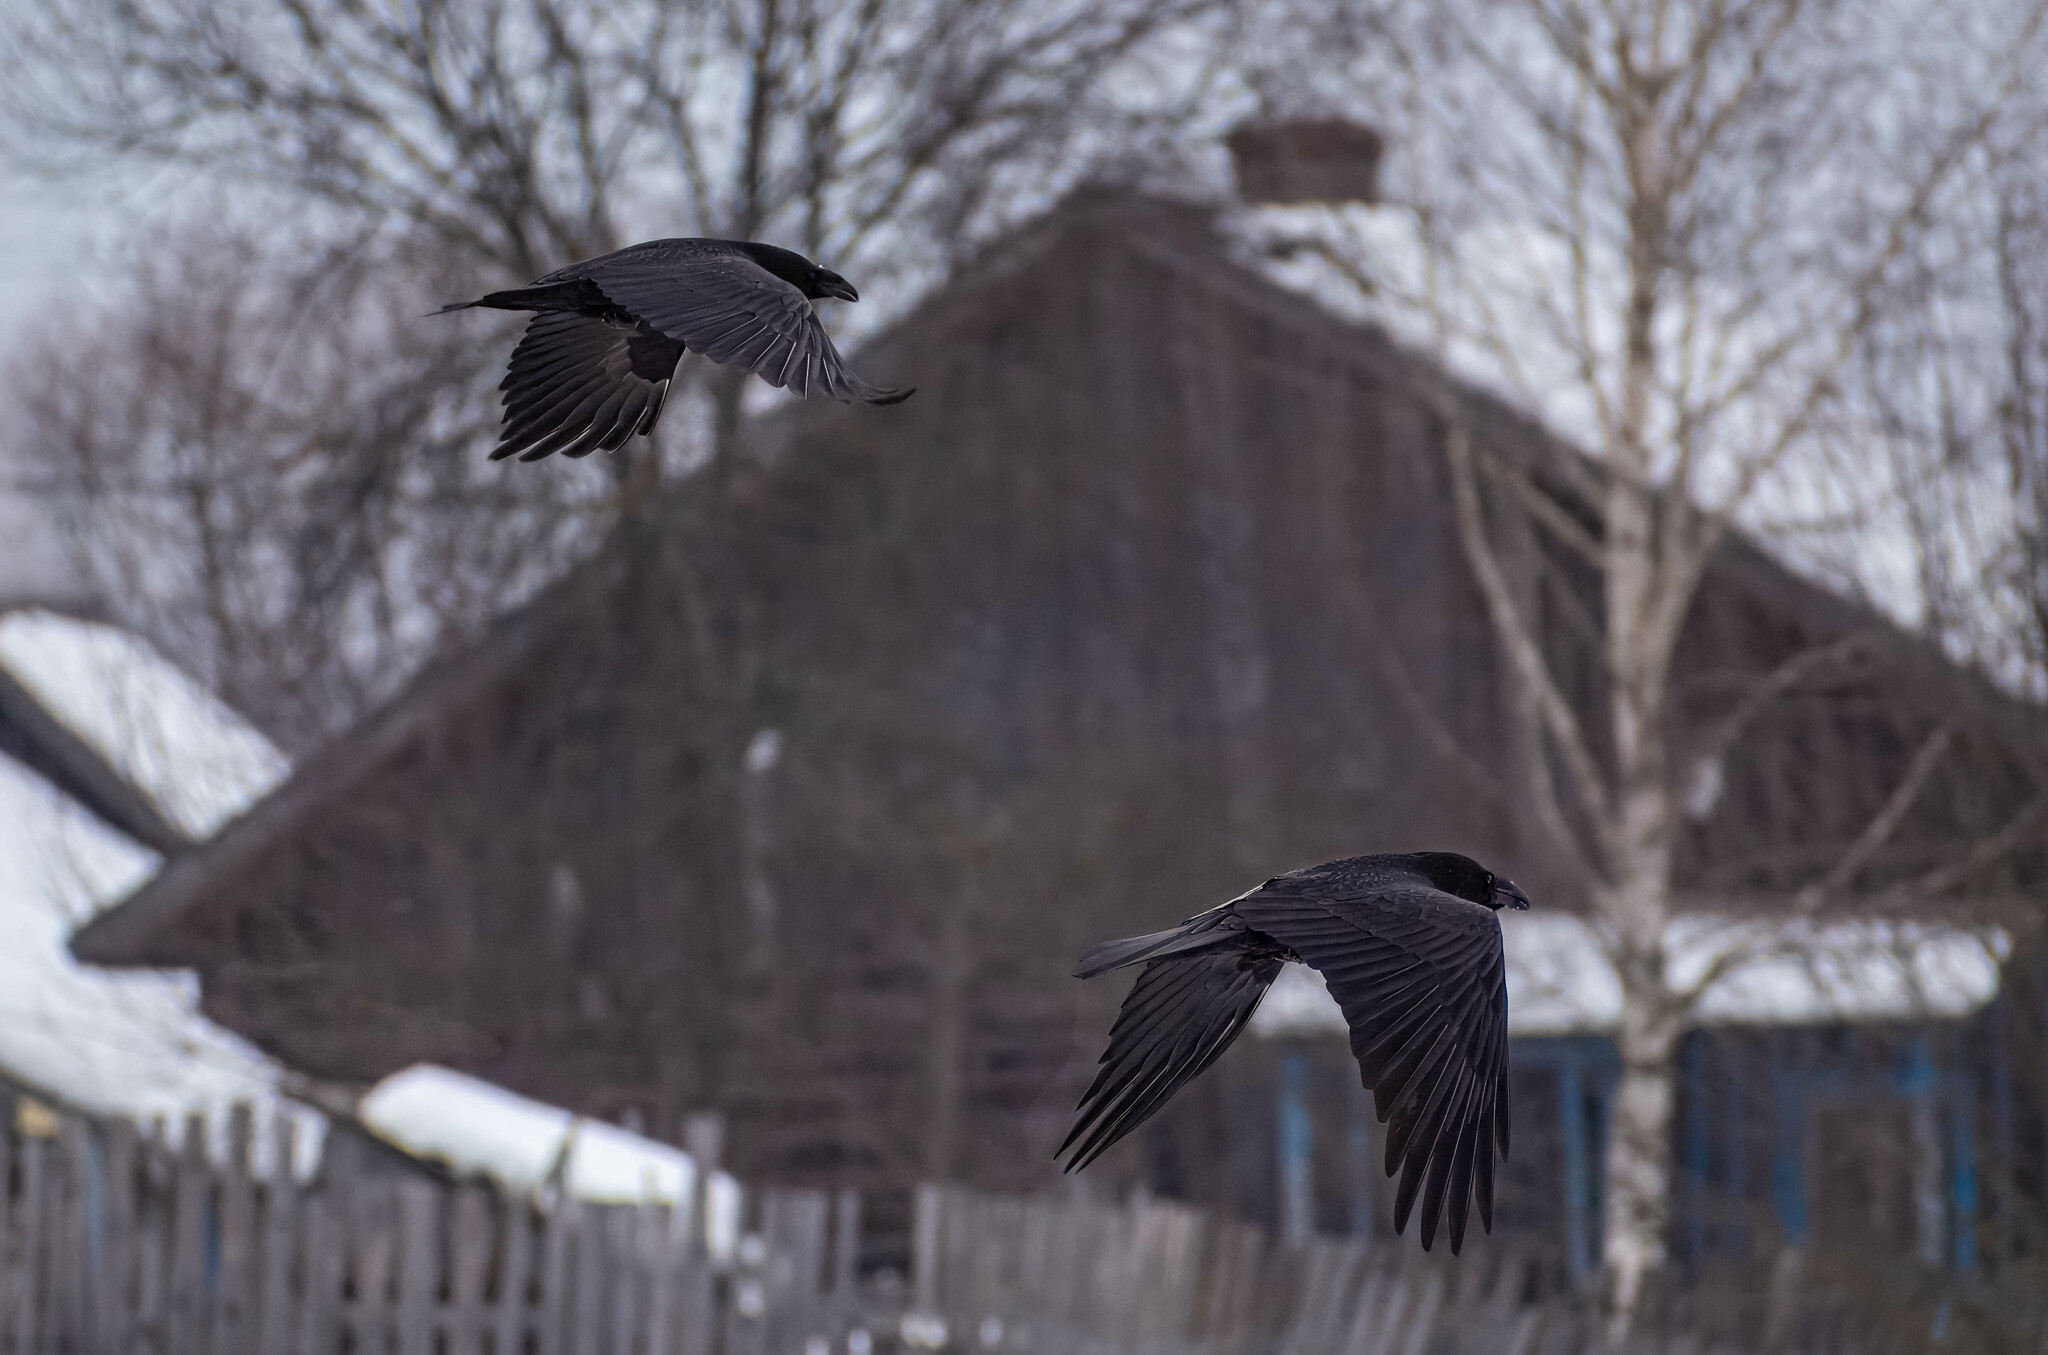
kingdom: Animalia
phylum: Chordata
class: Aves
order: Passeriformes
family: Corvidae
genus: Corvus
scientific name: Corvus corax
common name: Common raven
